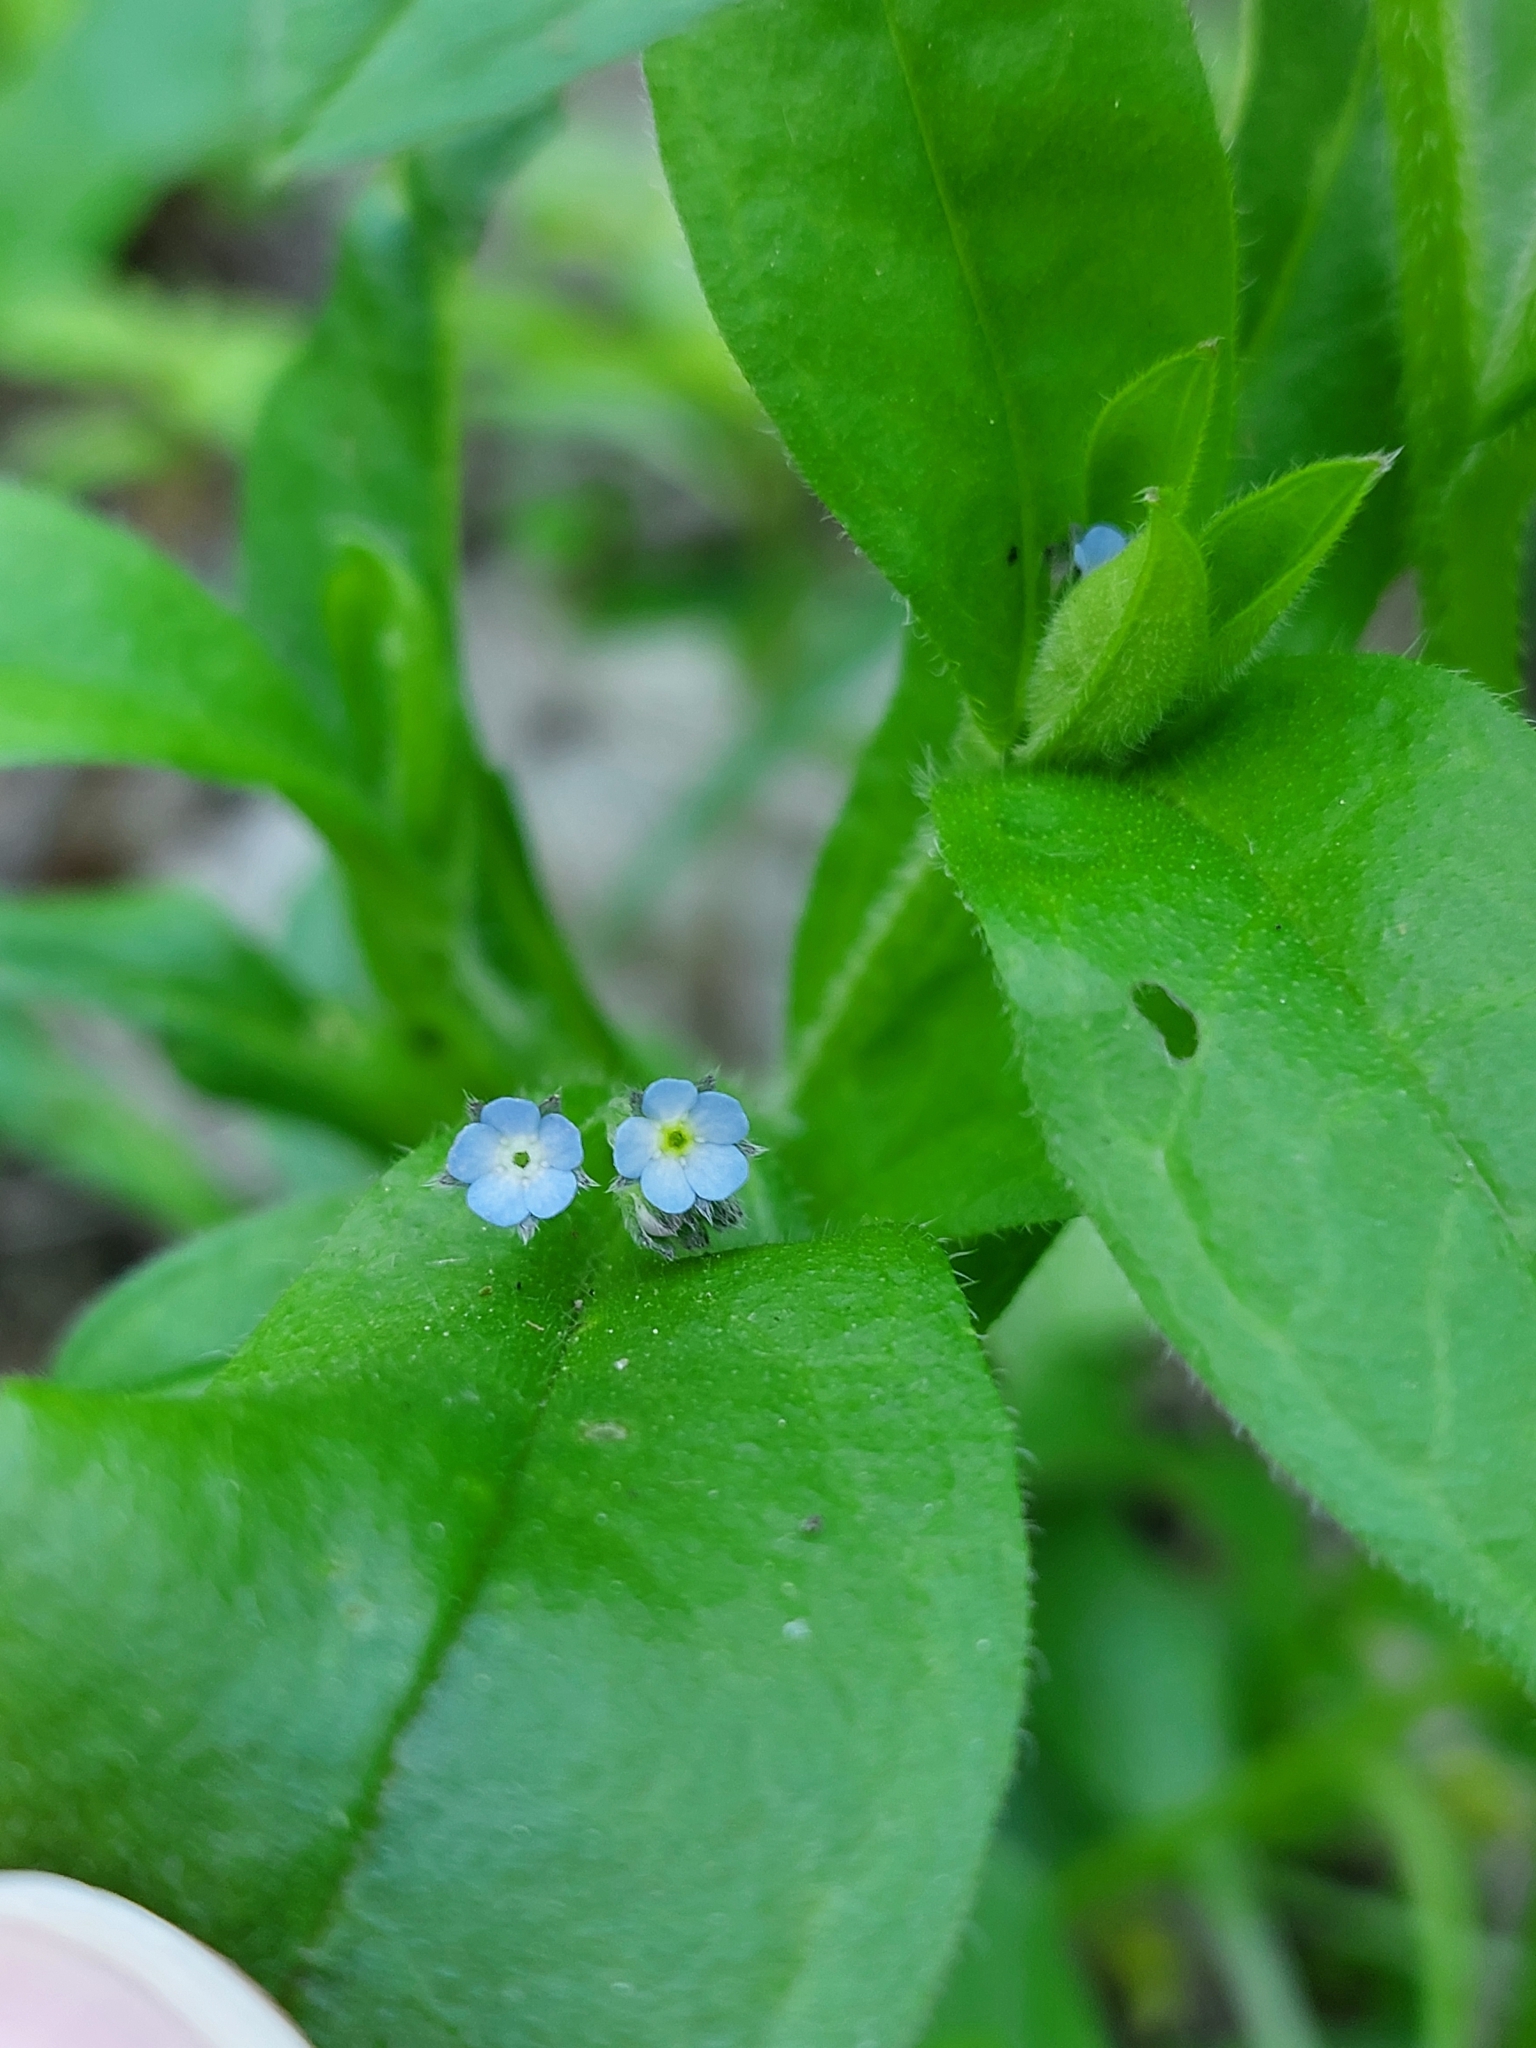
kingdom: Plantae
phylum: Tracheophyta
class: Magnoliopsida
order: Boraginales
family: Boraginaceae
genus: Myosotis
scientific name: Myosotis sparsiflora
